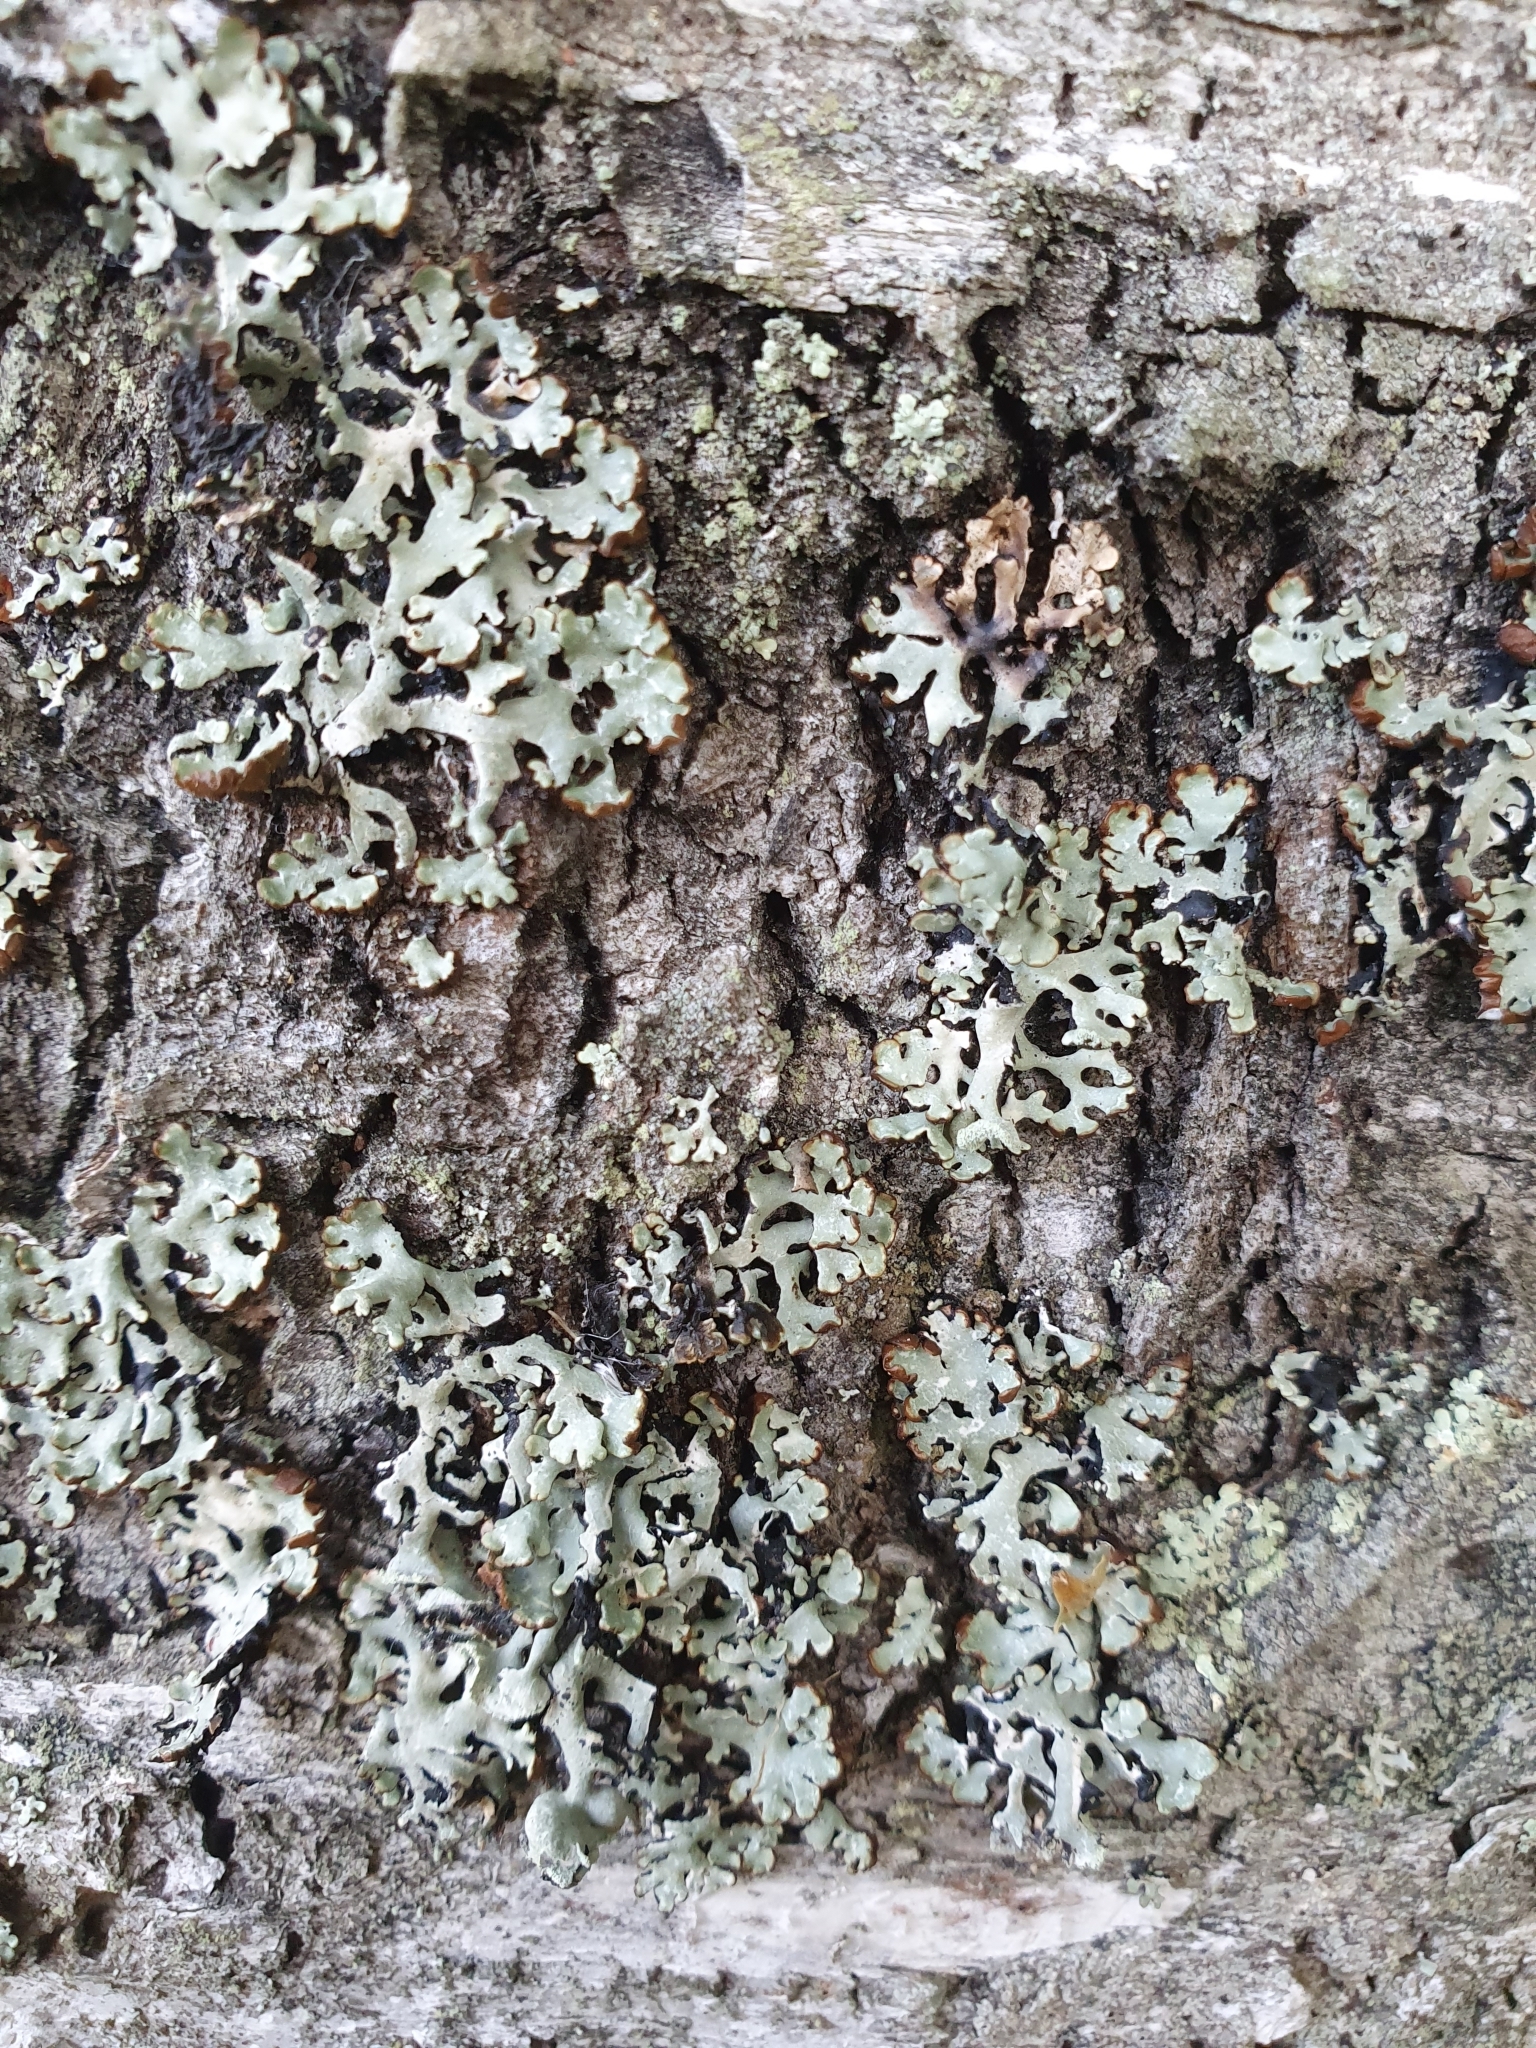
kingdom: Fungi
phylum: Ascomycota
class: Lecanoromycetes
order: Lecanorales
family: Parmeliaceae
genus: Hypogymnia
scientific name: Hypogymnia physodes
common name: Dark crottle
